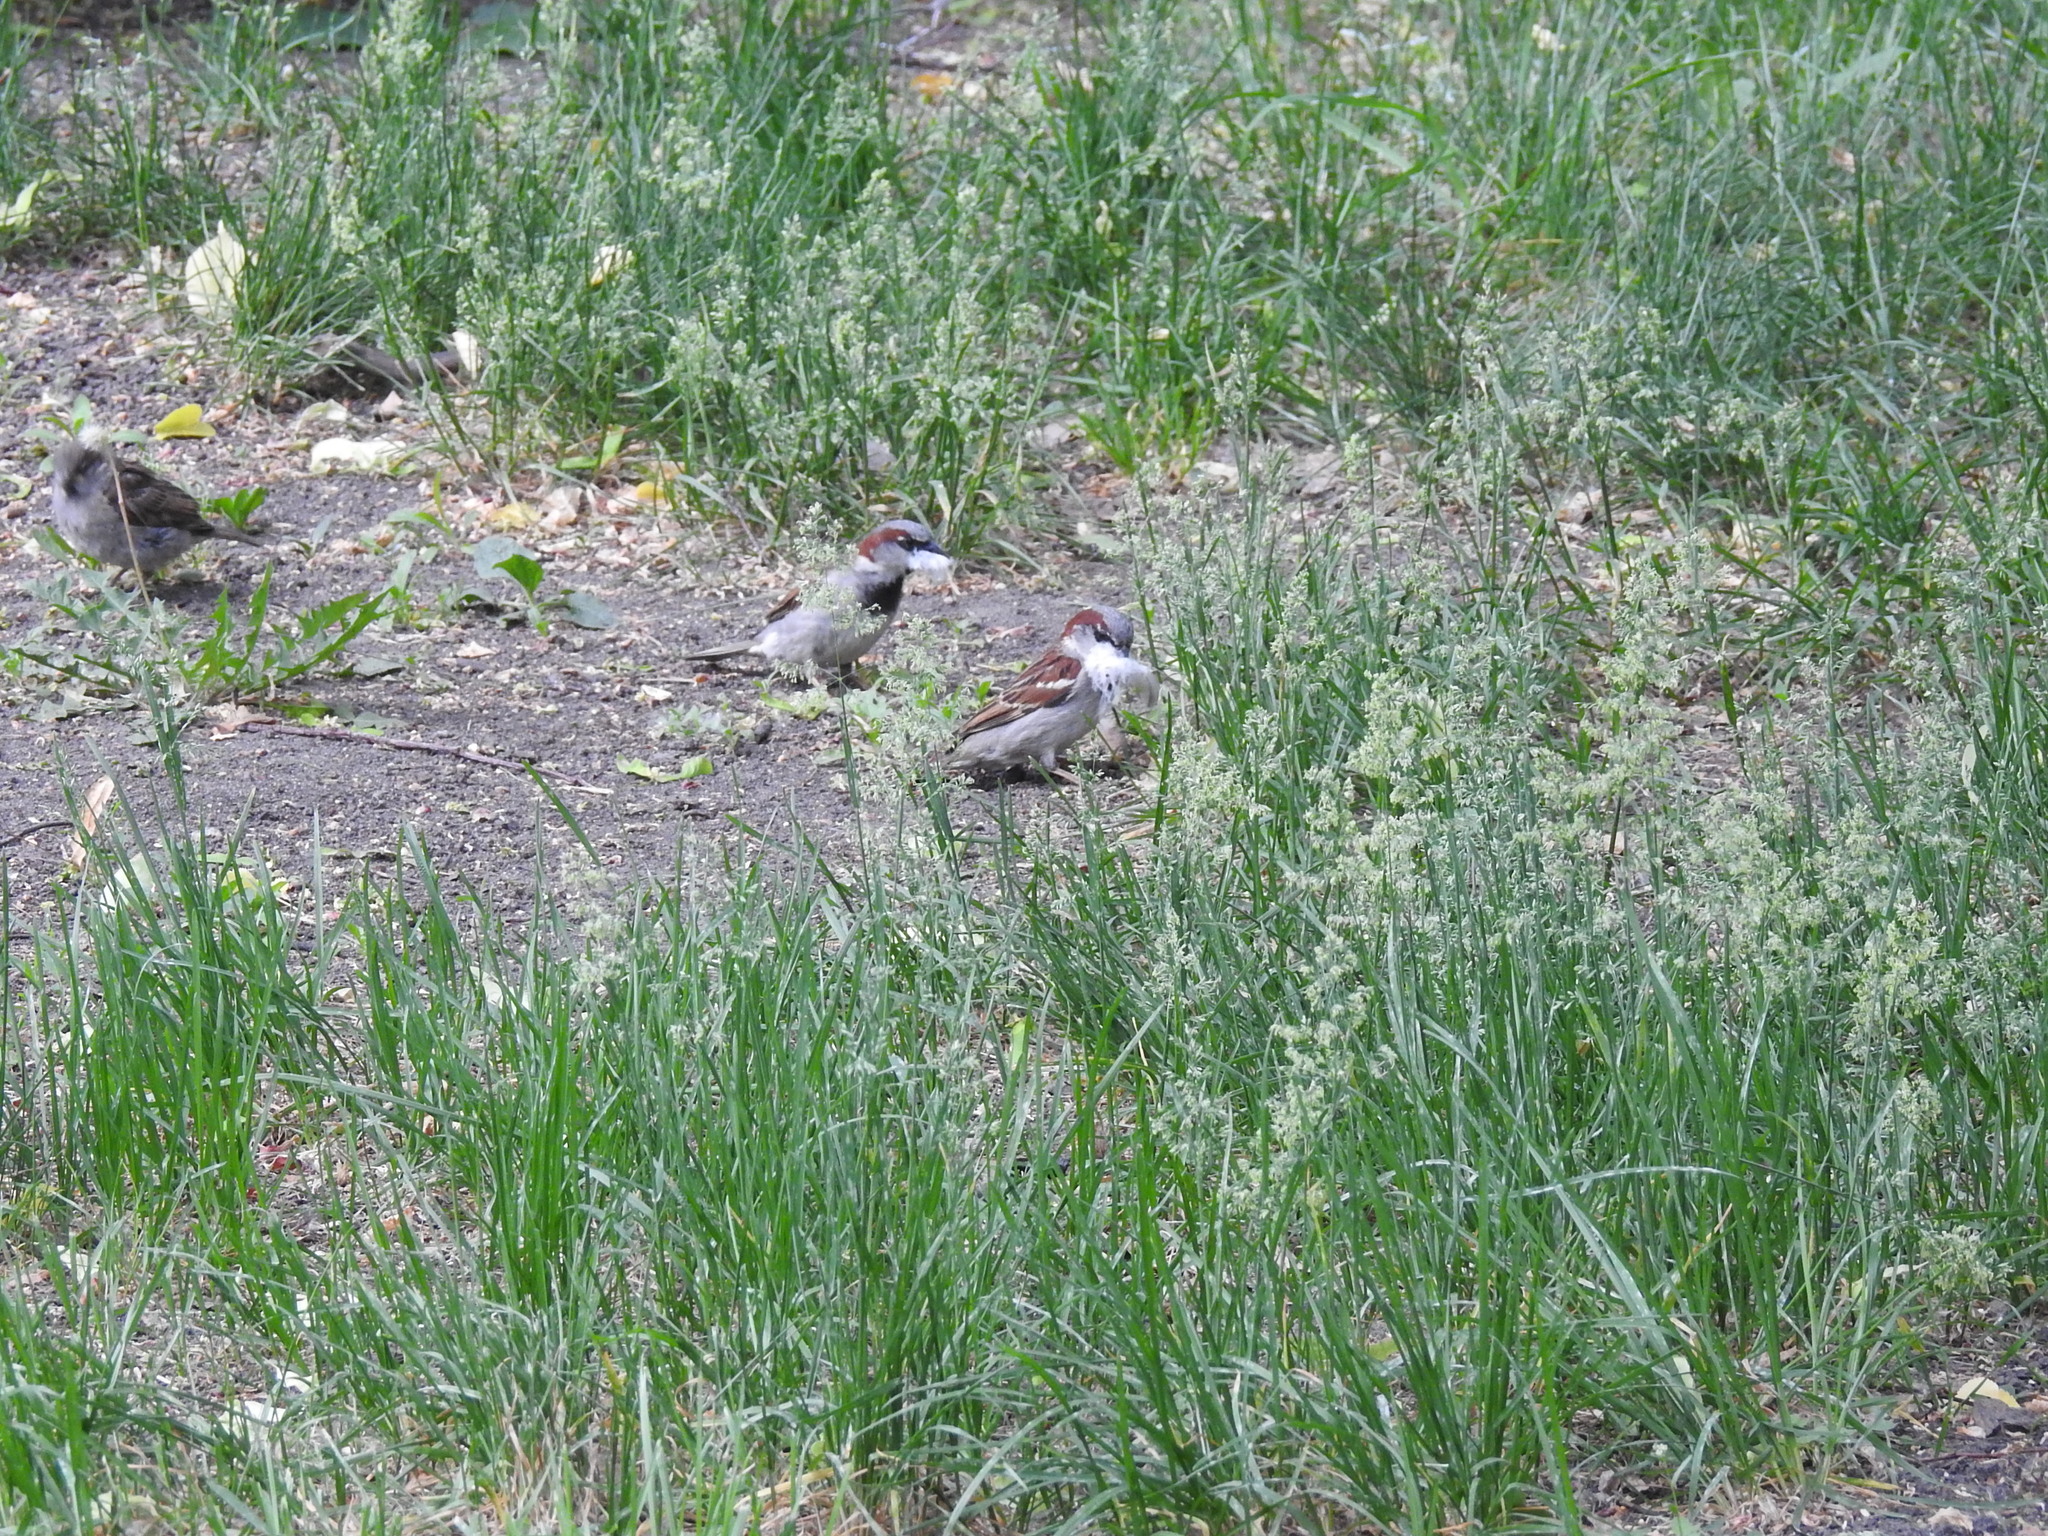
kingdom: Animalia
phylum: Chordata
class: Aves
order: Passeriformes
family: Passeridae
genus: Passer
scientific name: Passer domesticus
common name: House sparrow
